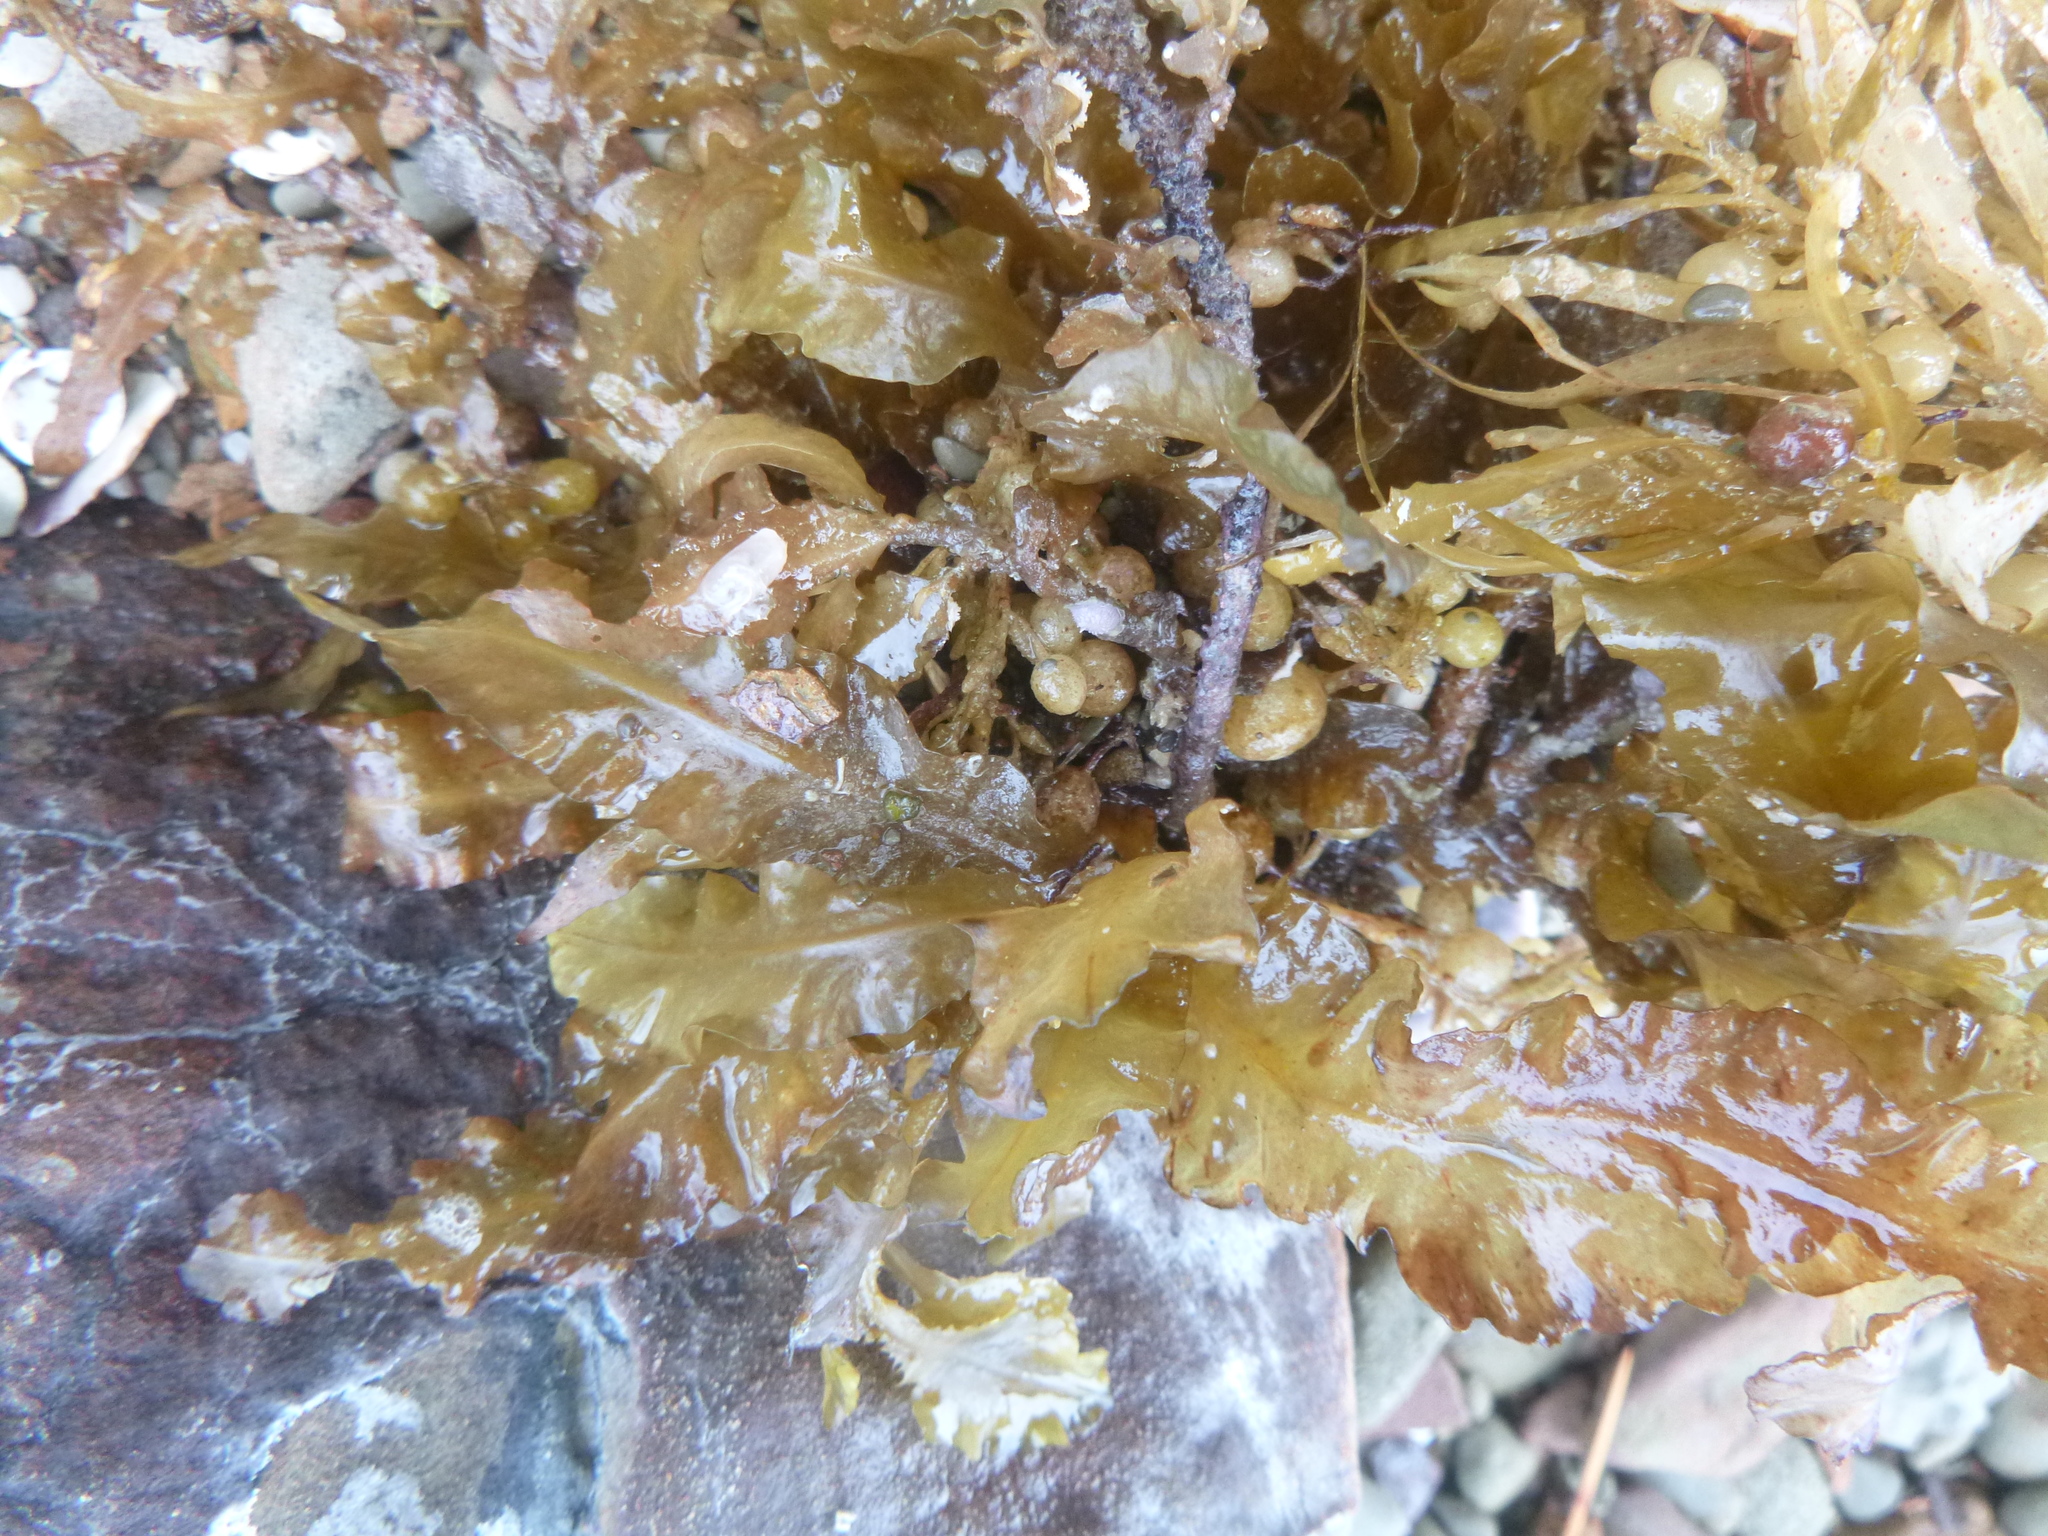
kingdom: Chromista
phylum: Ochrophyta
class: Phaeophyceae
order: Fucales
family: Sargassaceae
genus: Sargassum
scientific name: Sargassum sinclairii
